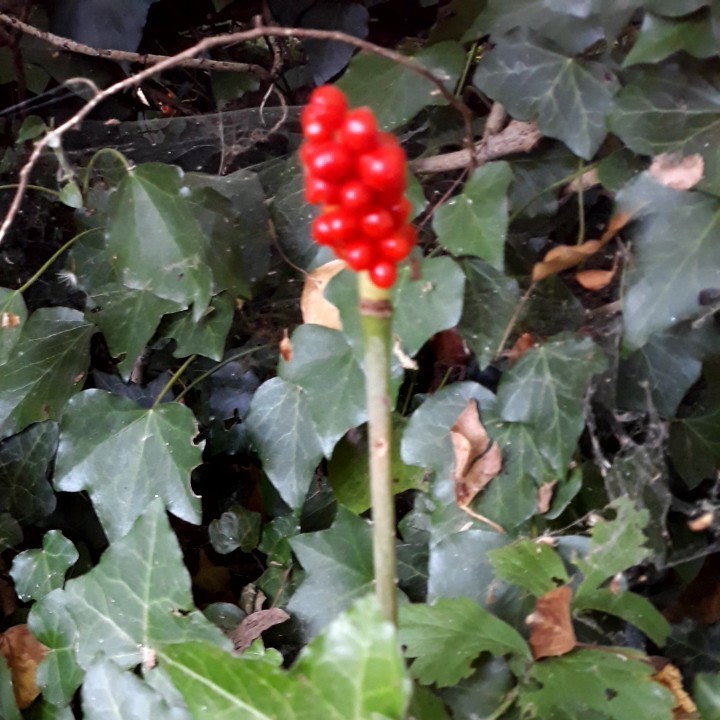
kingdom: Plantae
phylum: Tracheophyta
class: Liliopsida
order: Alismatales
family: Araceae
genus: Arum
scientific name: Arum maculatum
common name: Lords-and-ladies
